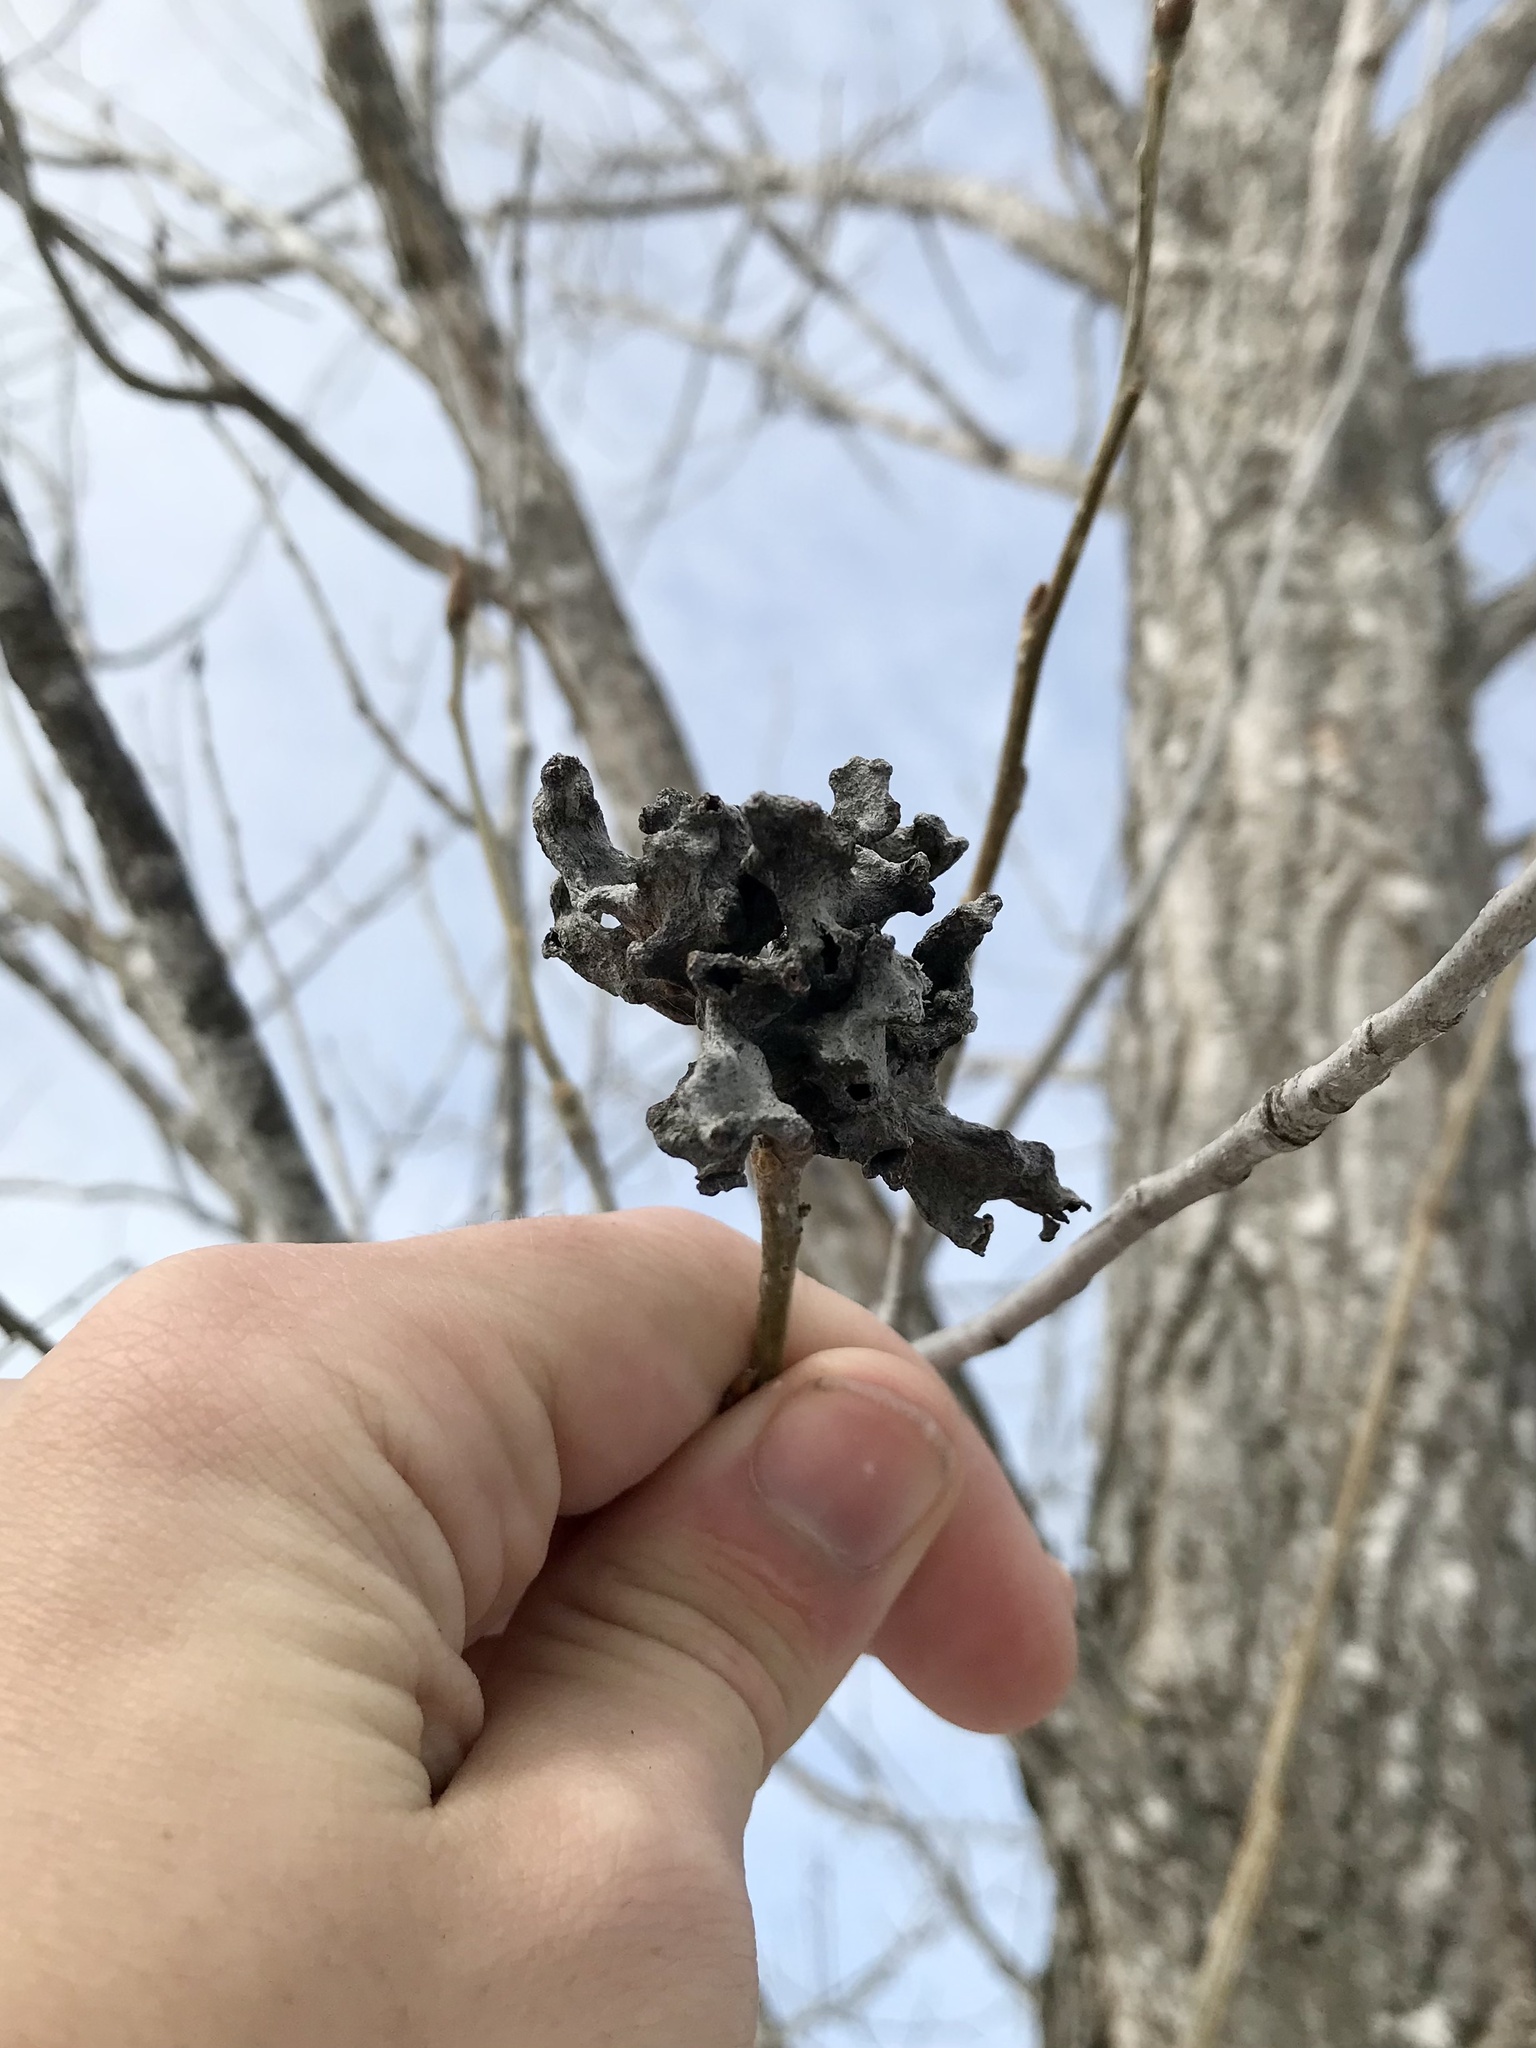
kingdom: Animalia
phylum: Arthropoda
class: Insecta
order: Hemiptera
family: Aphididae
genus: Mordwilkoja
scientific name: Mordwilkoja vagabunda
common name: Poplar vagabond aphid
